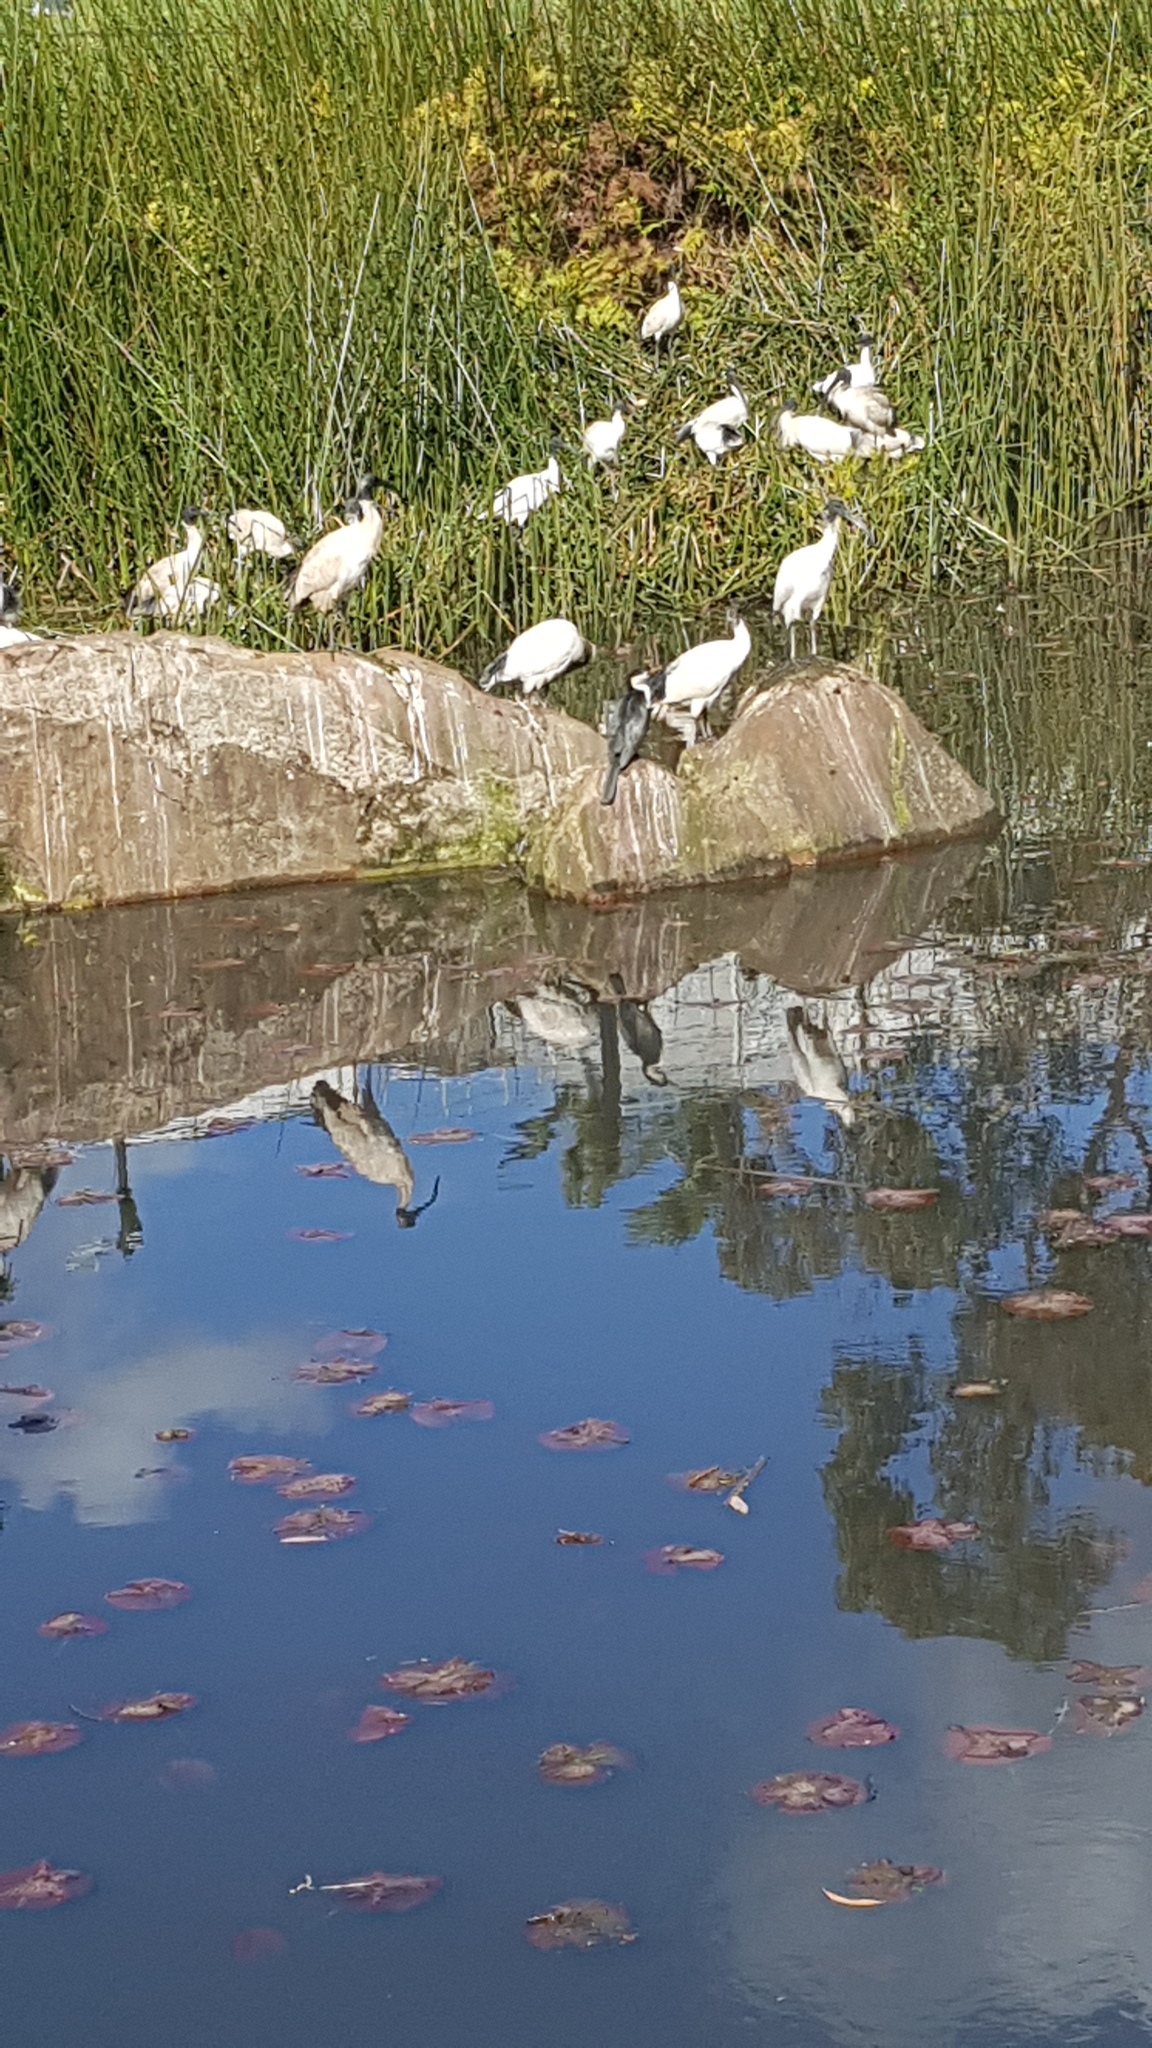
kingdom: Animalia
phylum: Chordata
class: Aves
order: Suliformes
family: Phalacrocoracidae
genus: Microcarbo
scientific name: Microcarbo melanoleucos
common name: Little pied cormorant
